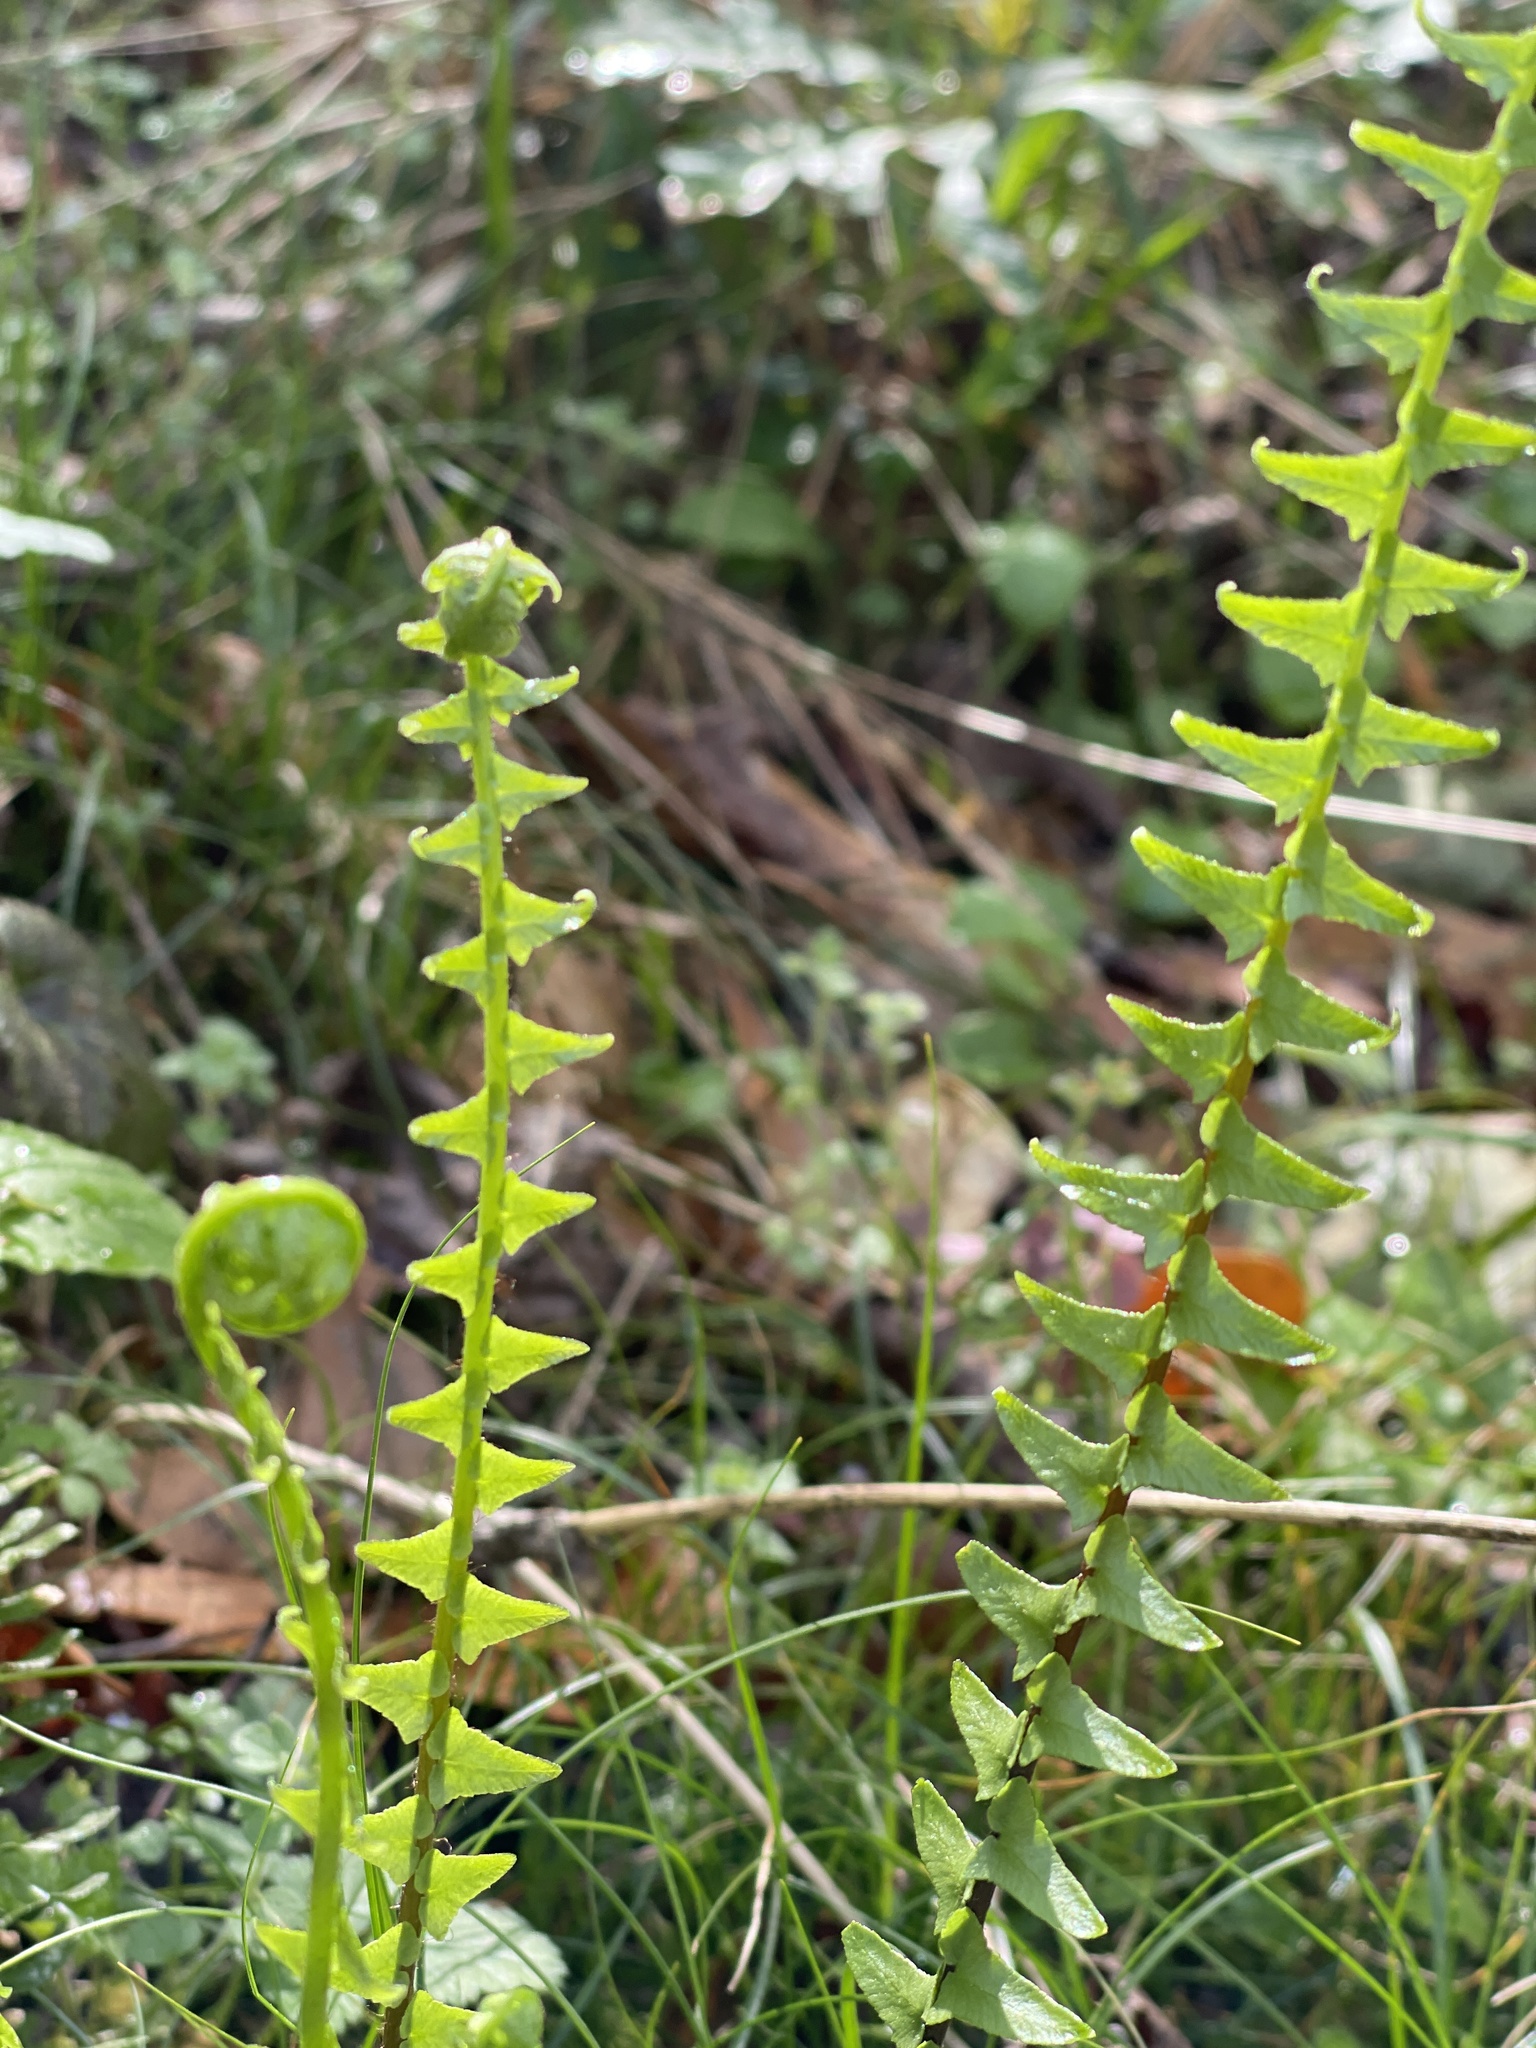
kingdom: Plantae
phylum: Tracheophyta
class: Polypodiopsida
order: Polypodiales
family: Aspleniaceae
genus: Asplenium
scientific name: Asplenium platyneuron
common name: Ebony spleenwort
